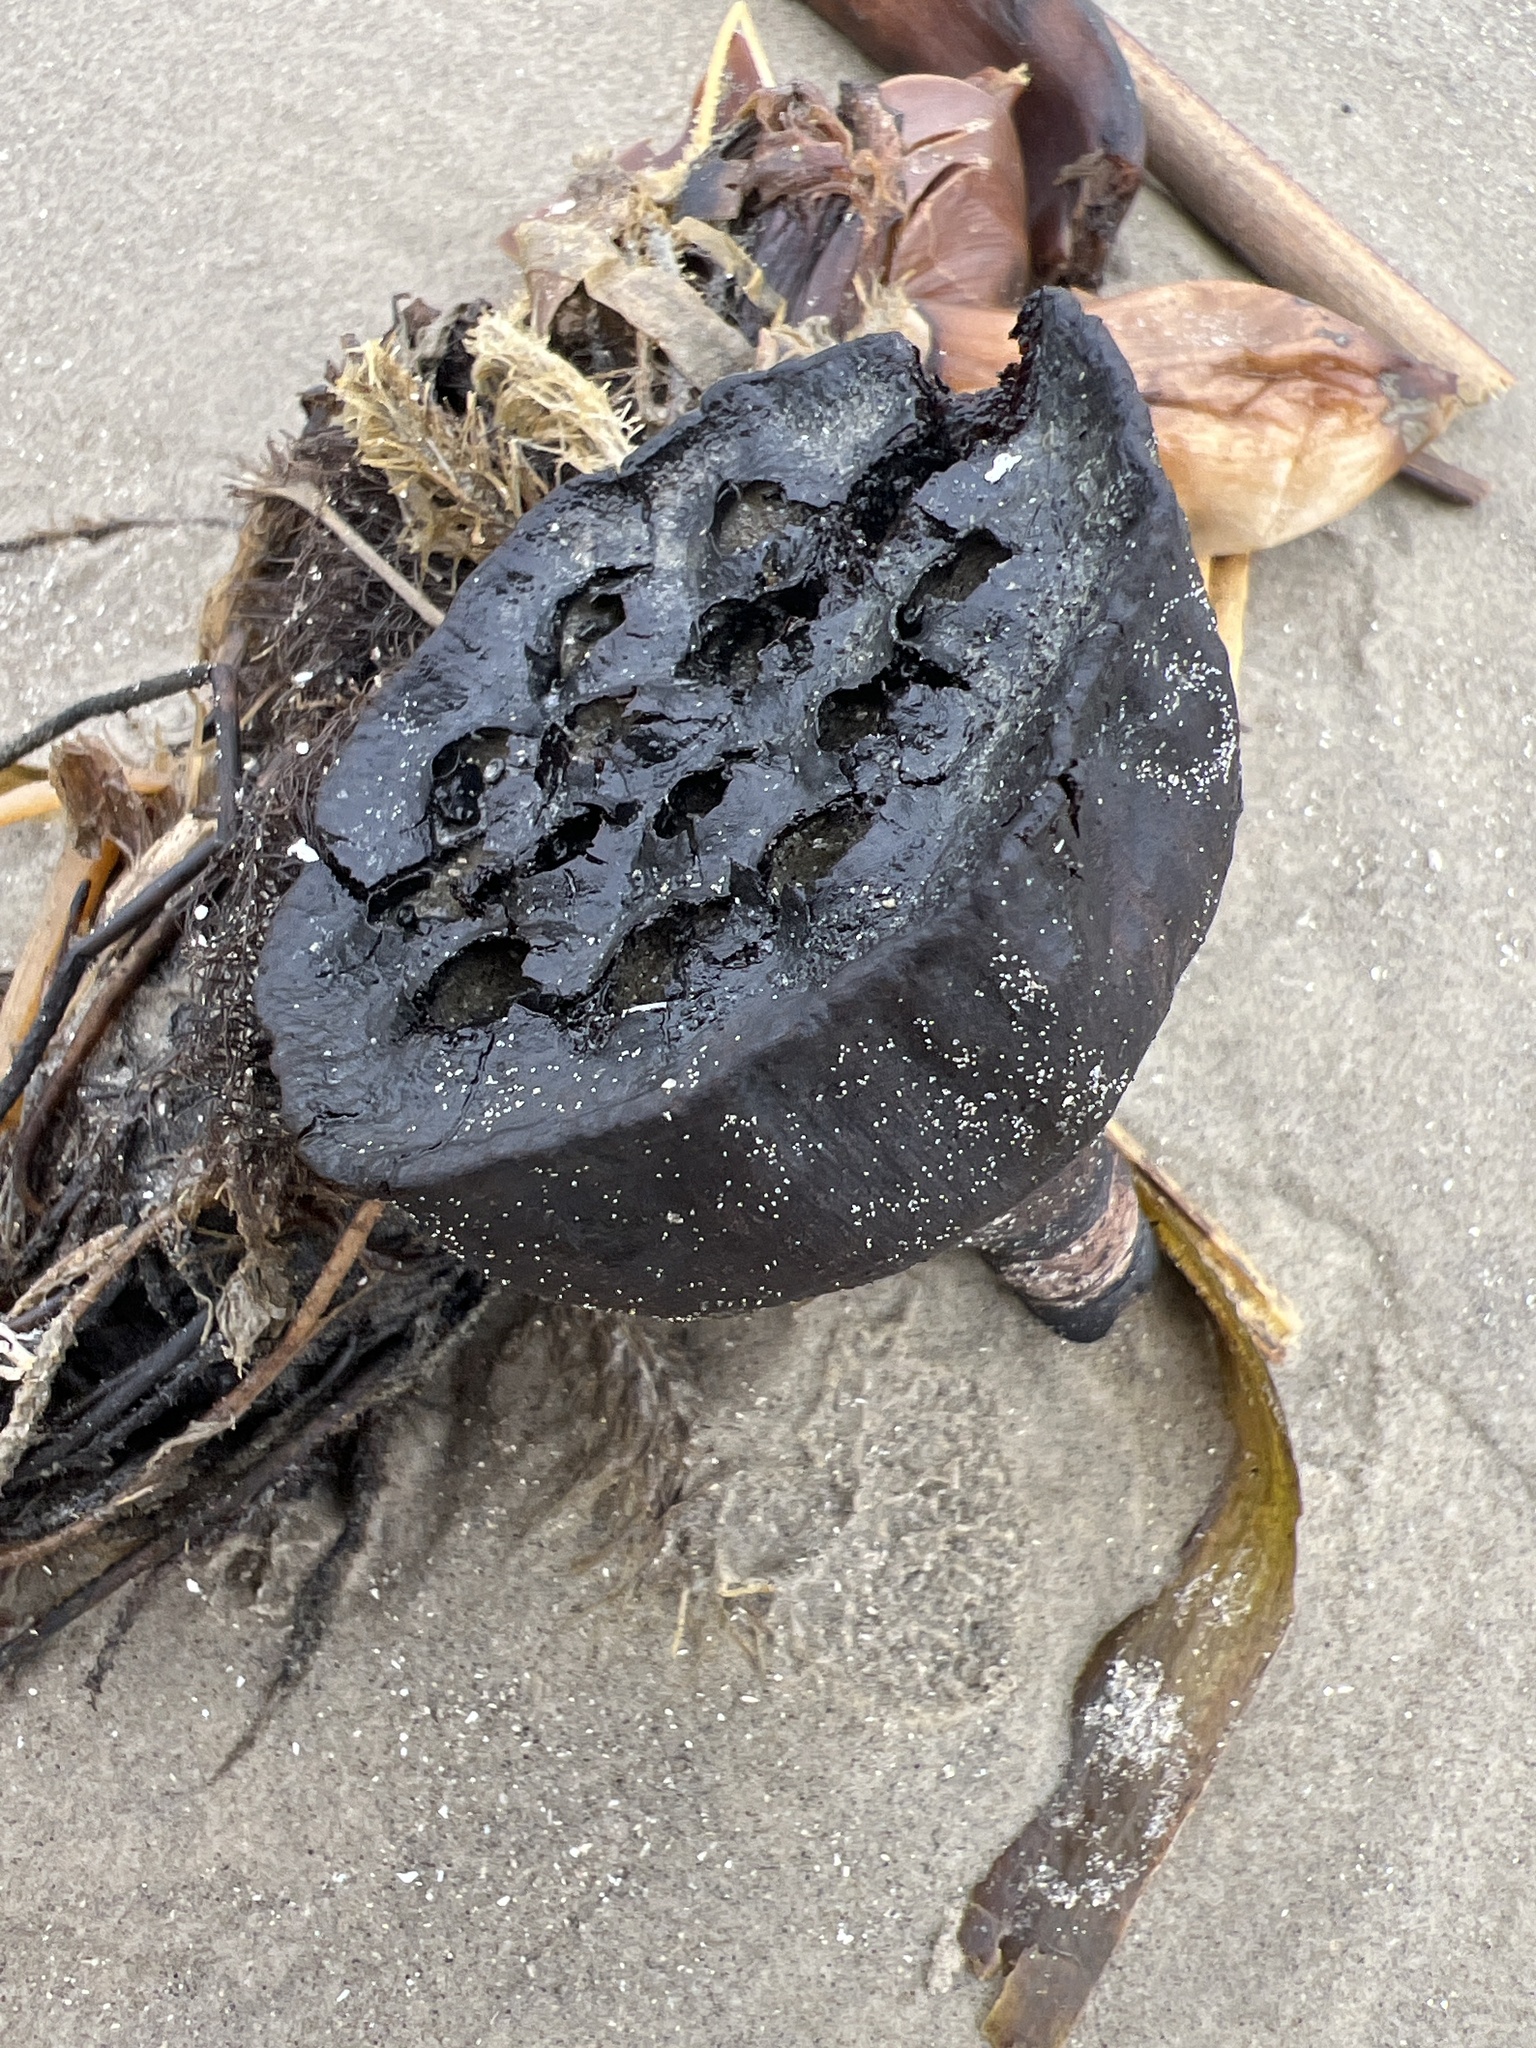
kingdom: Plantae
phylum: Tracheophyta
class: Magnoliopsida
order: Proteales
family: Nelumbonaceae
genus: Nelumbo
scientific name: Nelumbo lutea
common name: American lotus
